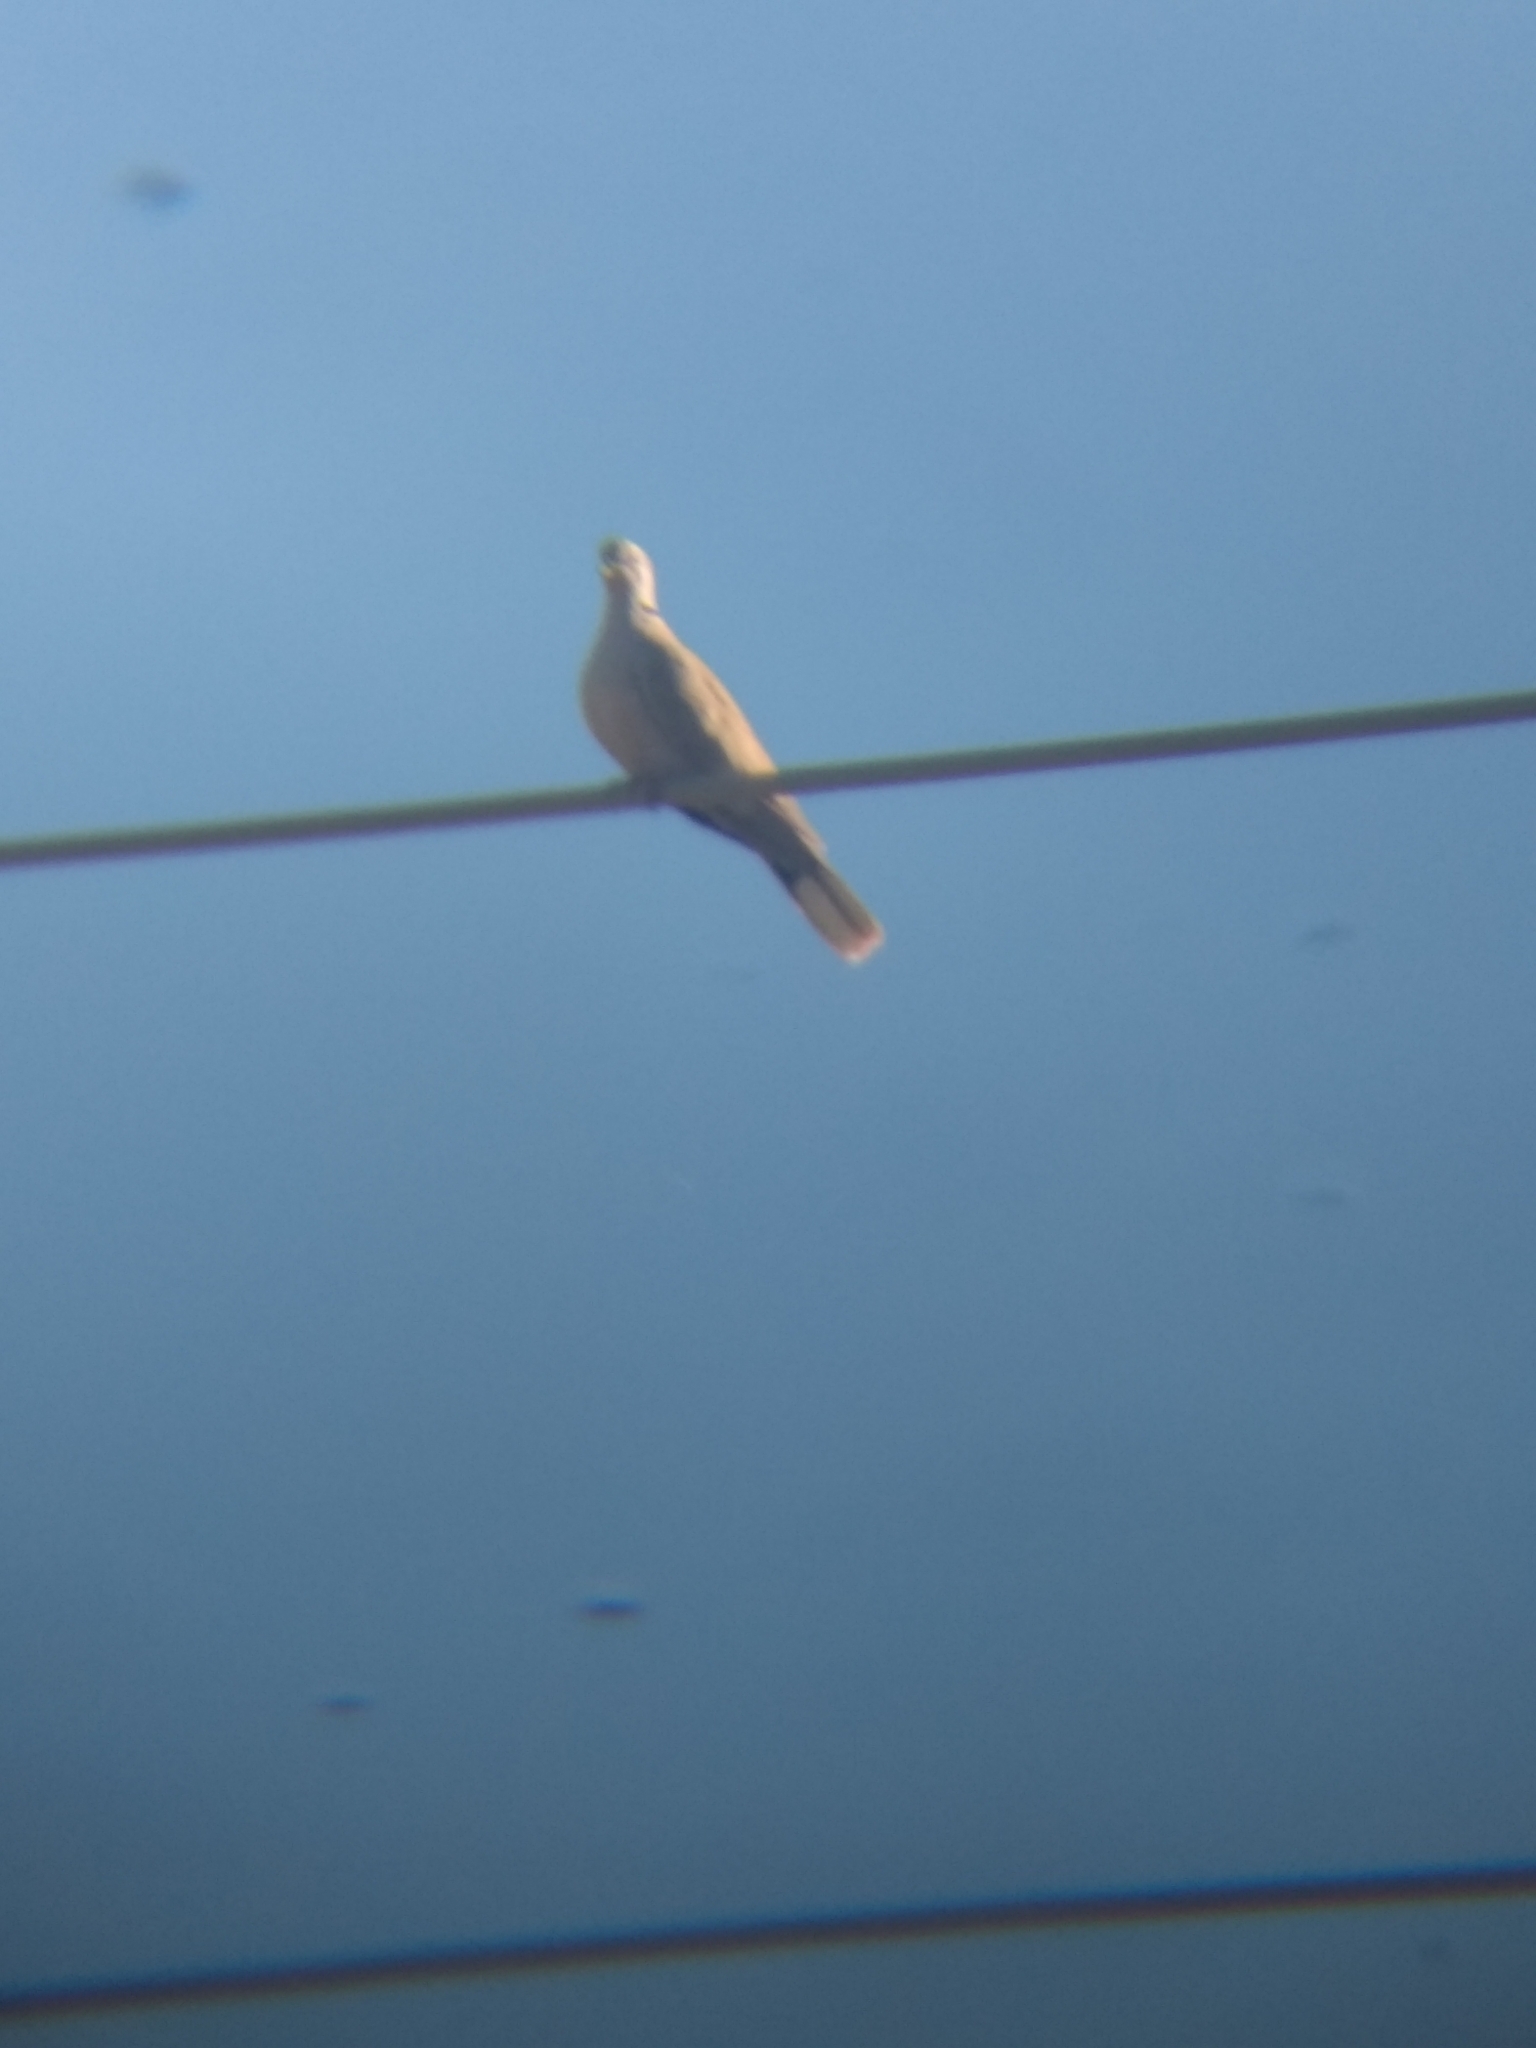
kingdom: Animalia
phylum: Chordata
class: Aves
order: Columbiformes
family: Columbidae
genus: Streptopelia
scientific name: Streptopelia decaocto
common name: Eurasian collared dove
